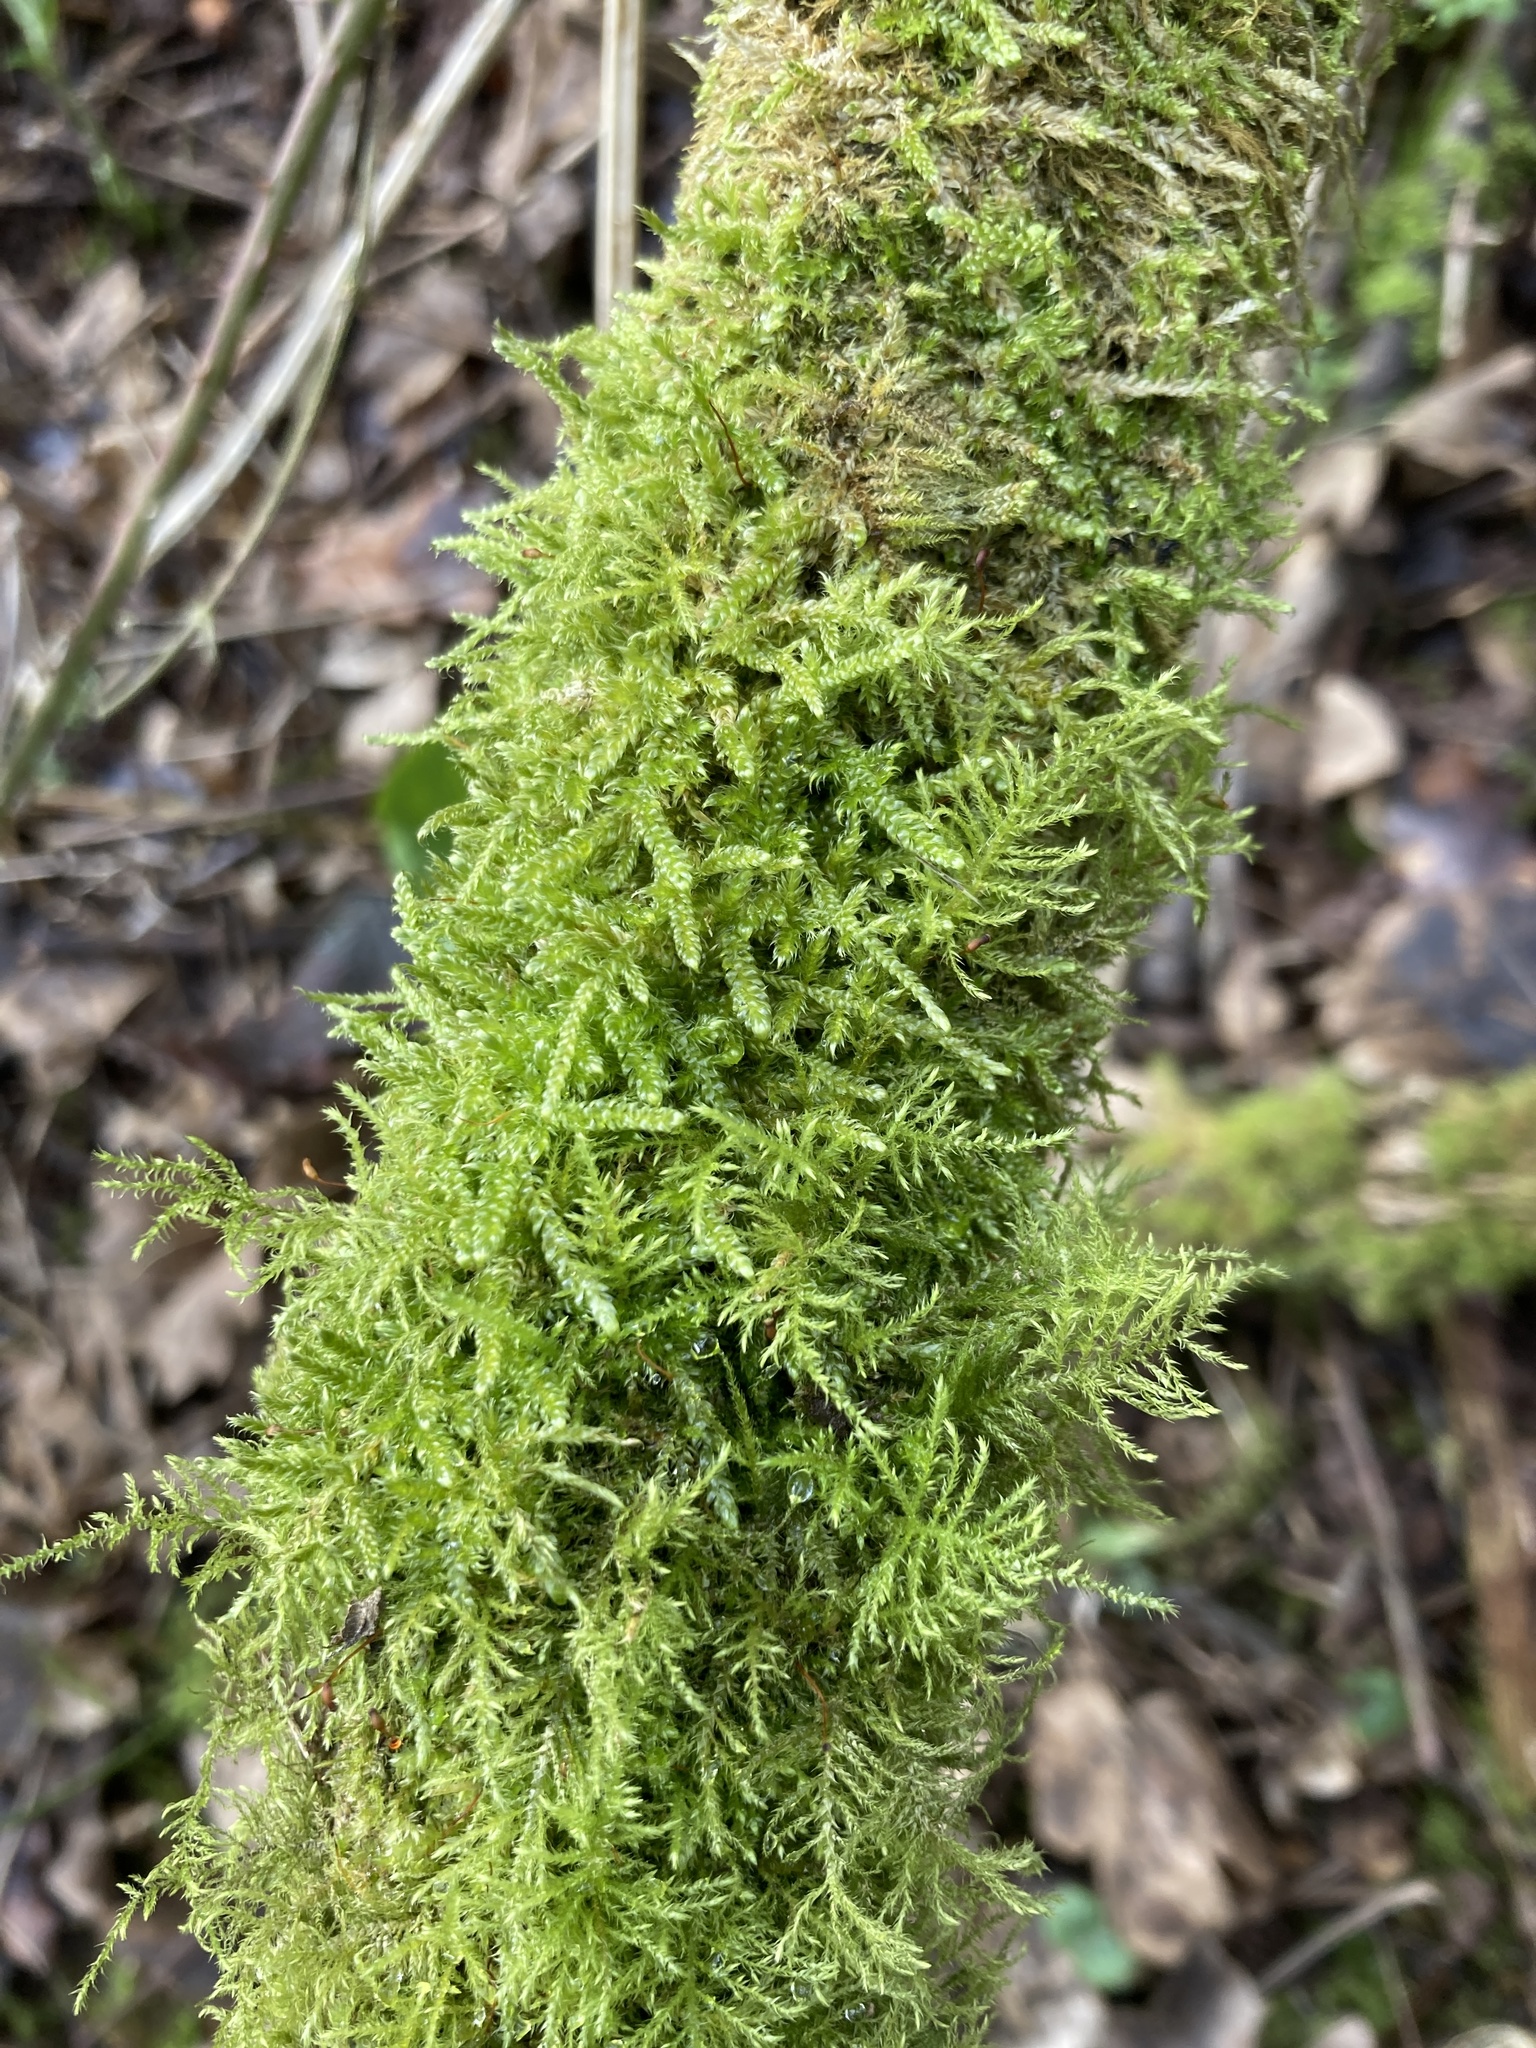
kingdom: Plantae
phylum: Bryophyta
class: Bryopsida
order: Hypnales
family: Brachytheciaceae
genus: Kindbergia
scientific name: Kindbergia praelonga
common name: Slender beaked moss
